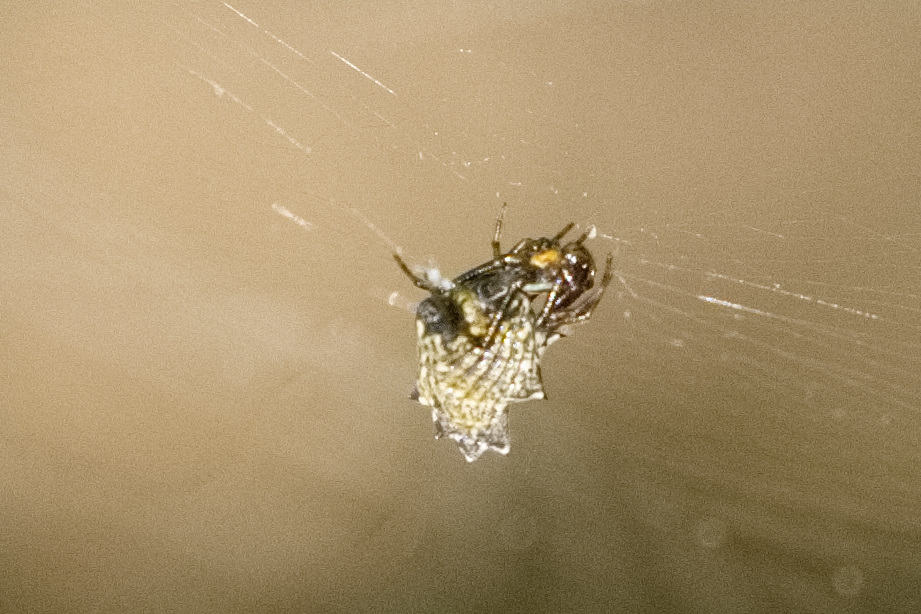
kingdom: Animalia
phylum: Arthropoda
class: Arachnida
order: Araneae
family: Araneidae
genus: Micrathena
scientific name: Micrathena gracilis
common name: Orb weavers
